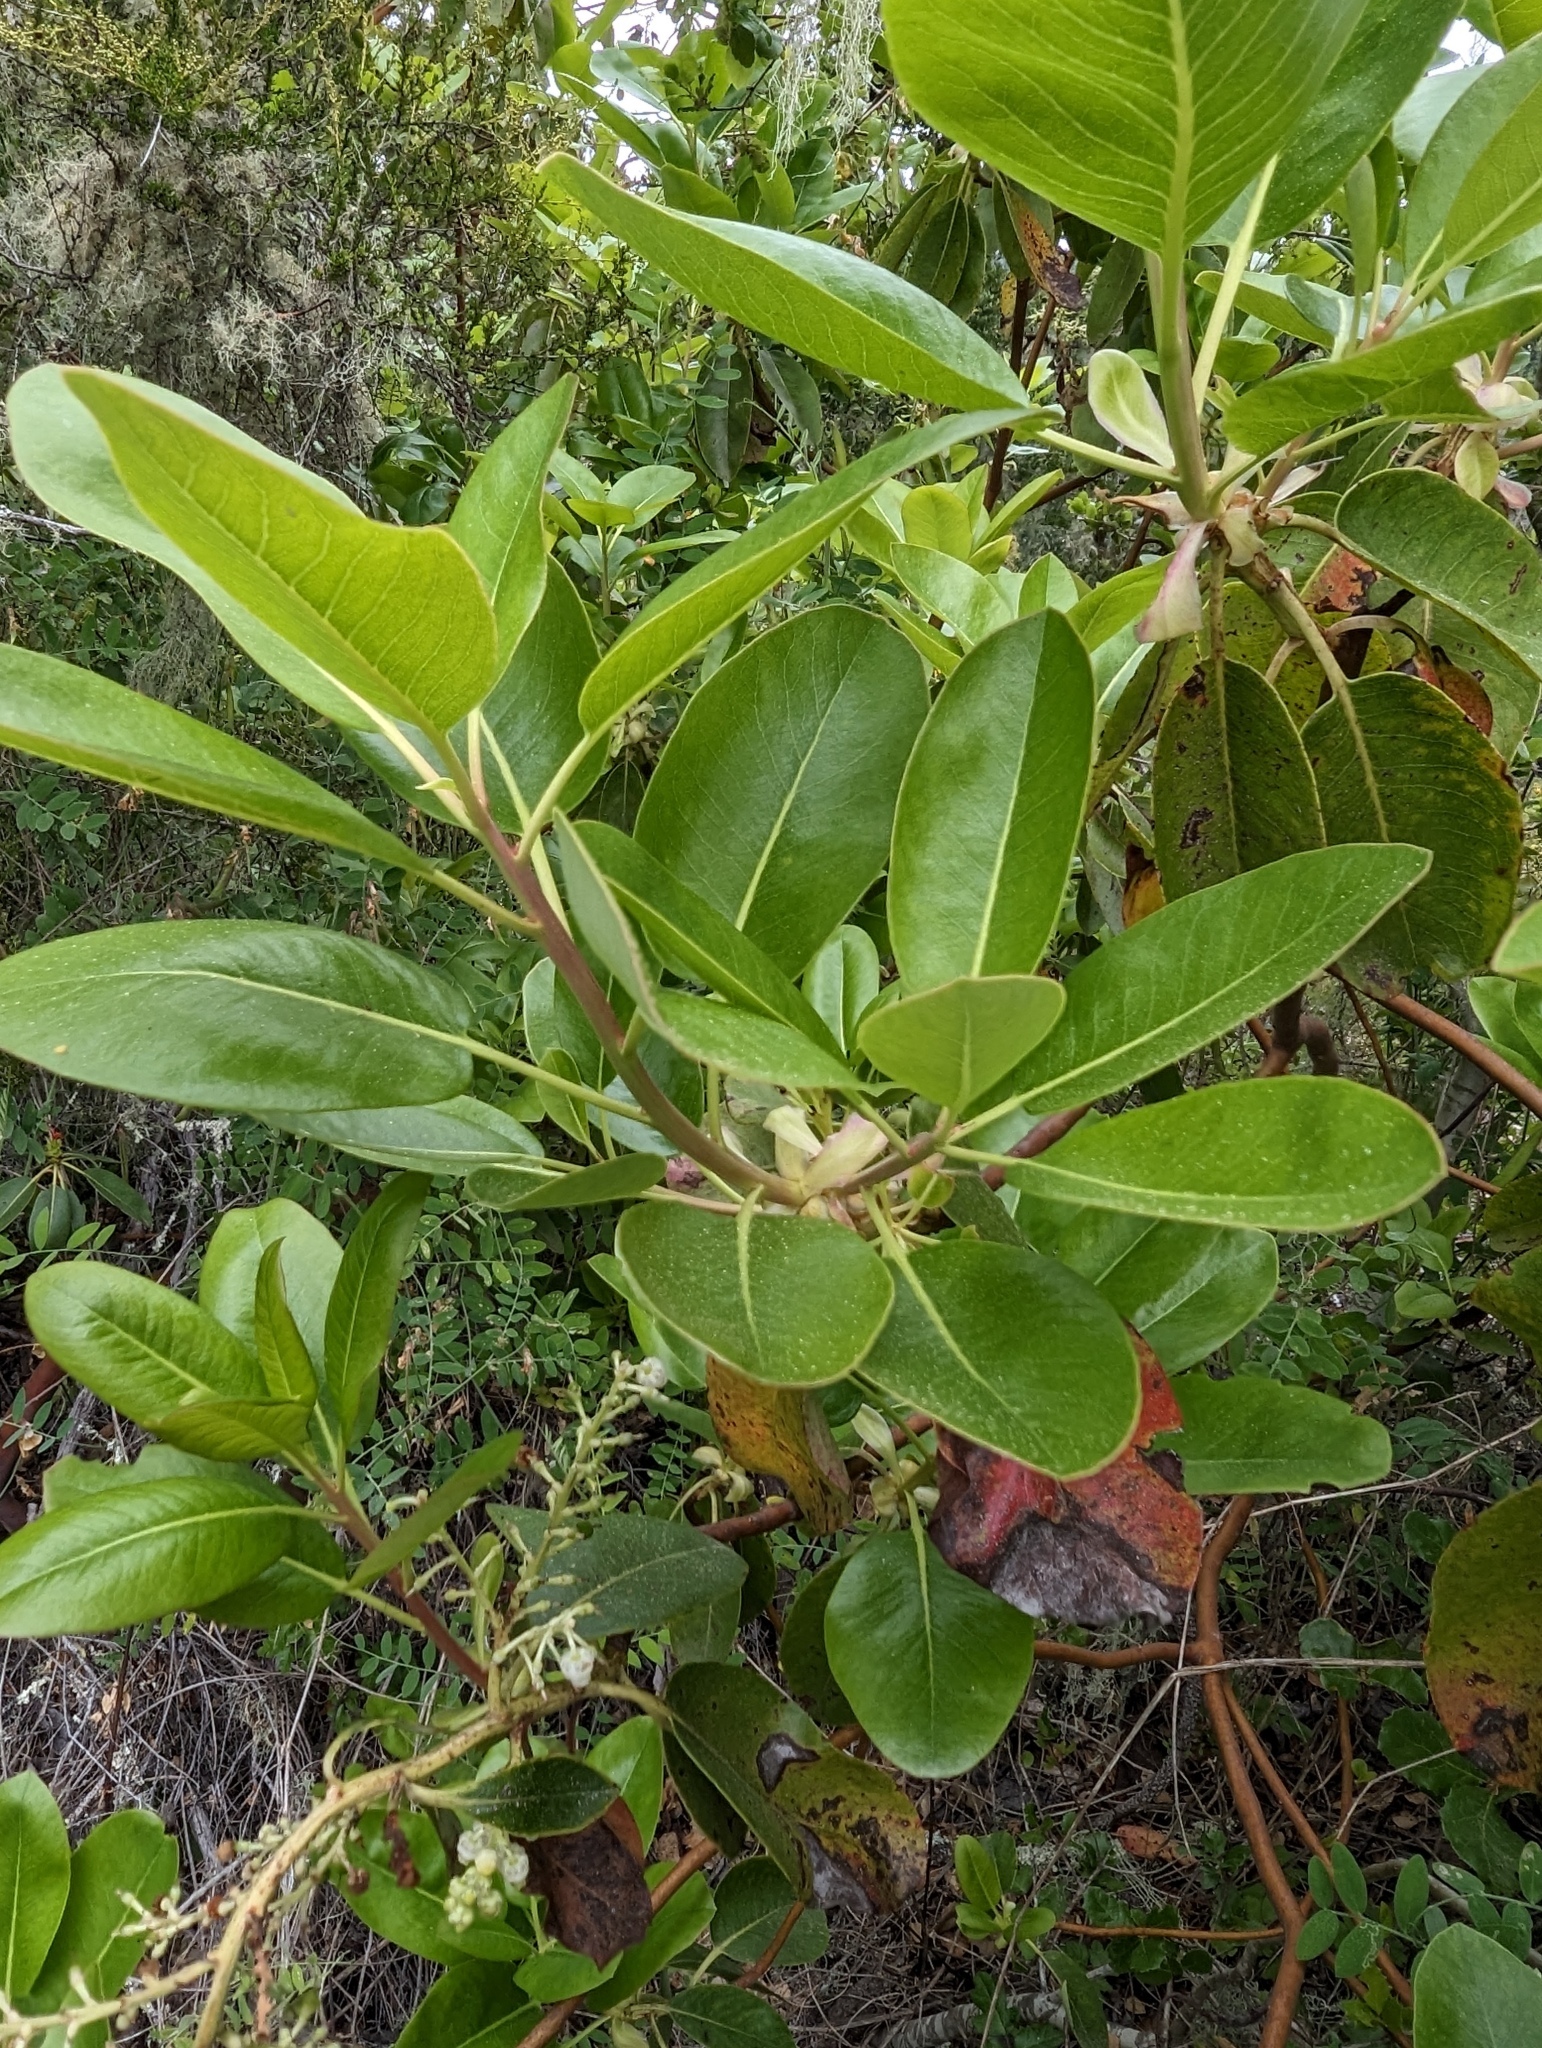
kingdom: Plantae
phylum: Tracheophyta
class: Magnoliopsida
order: Ericales
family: Ericaceae
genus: Arbutus
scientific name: Arbutus menziesii
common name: Pacific madrone
